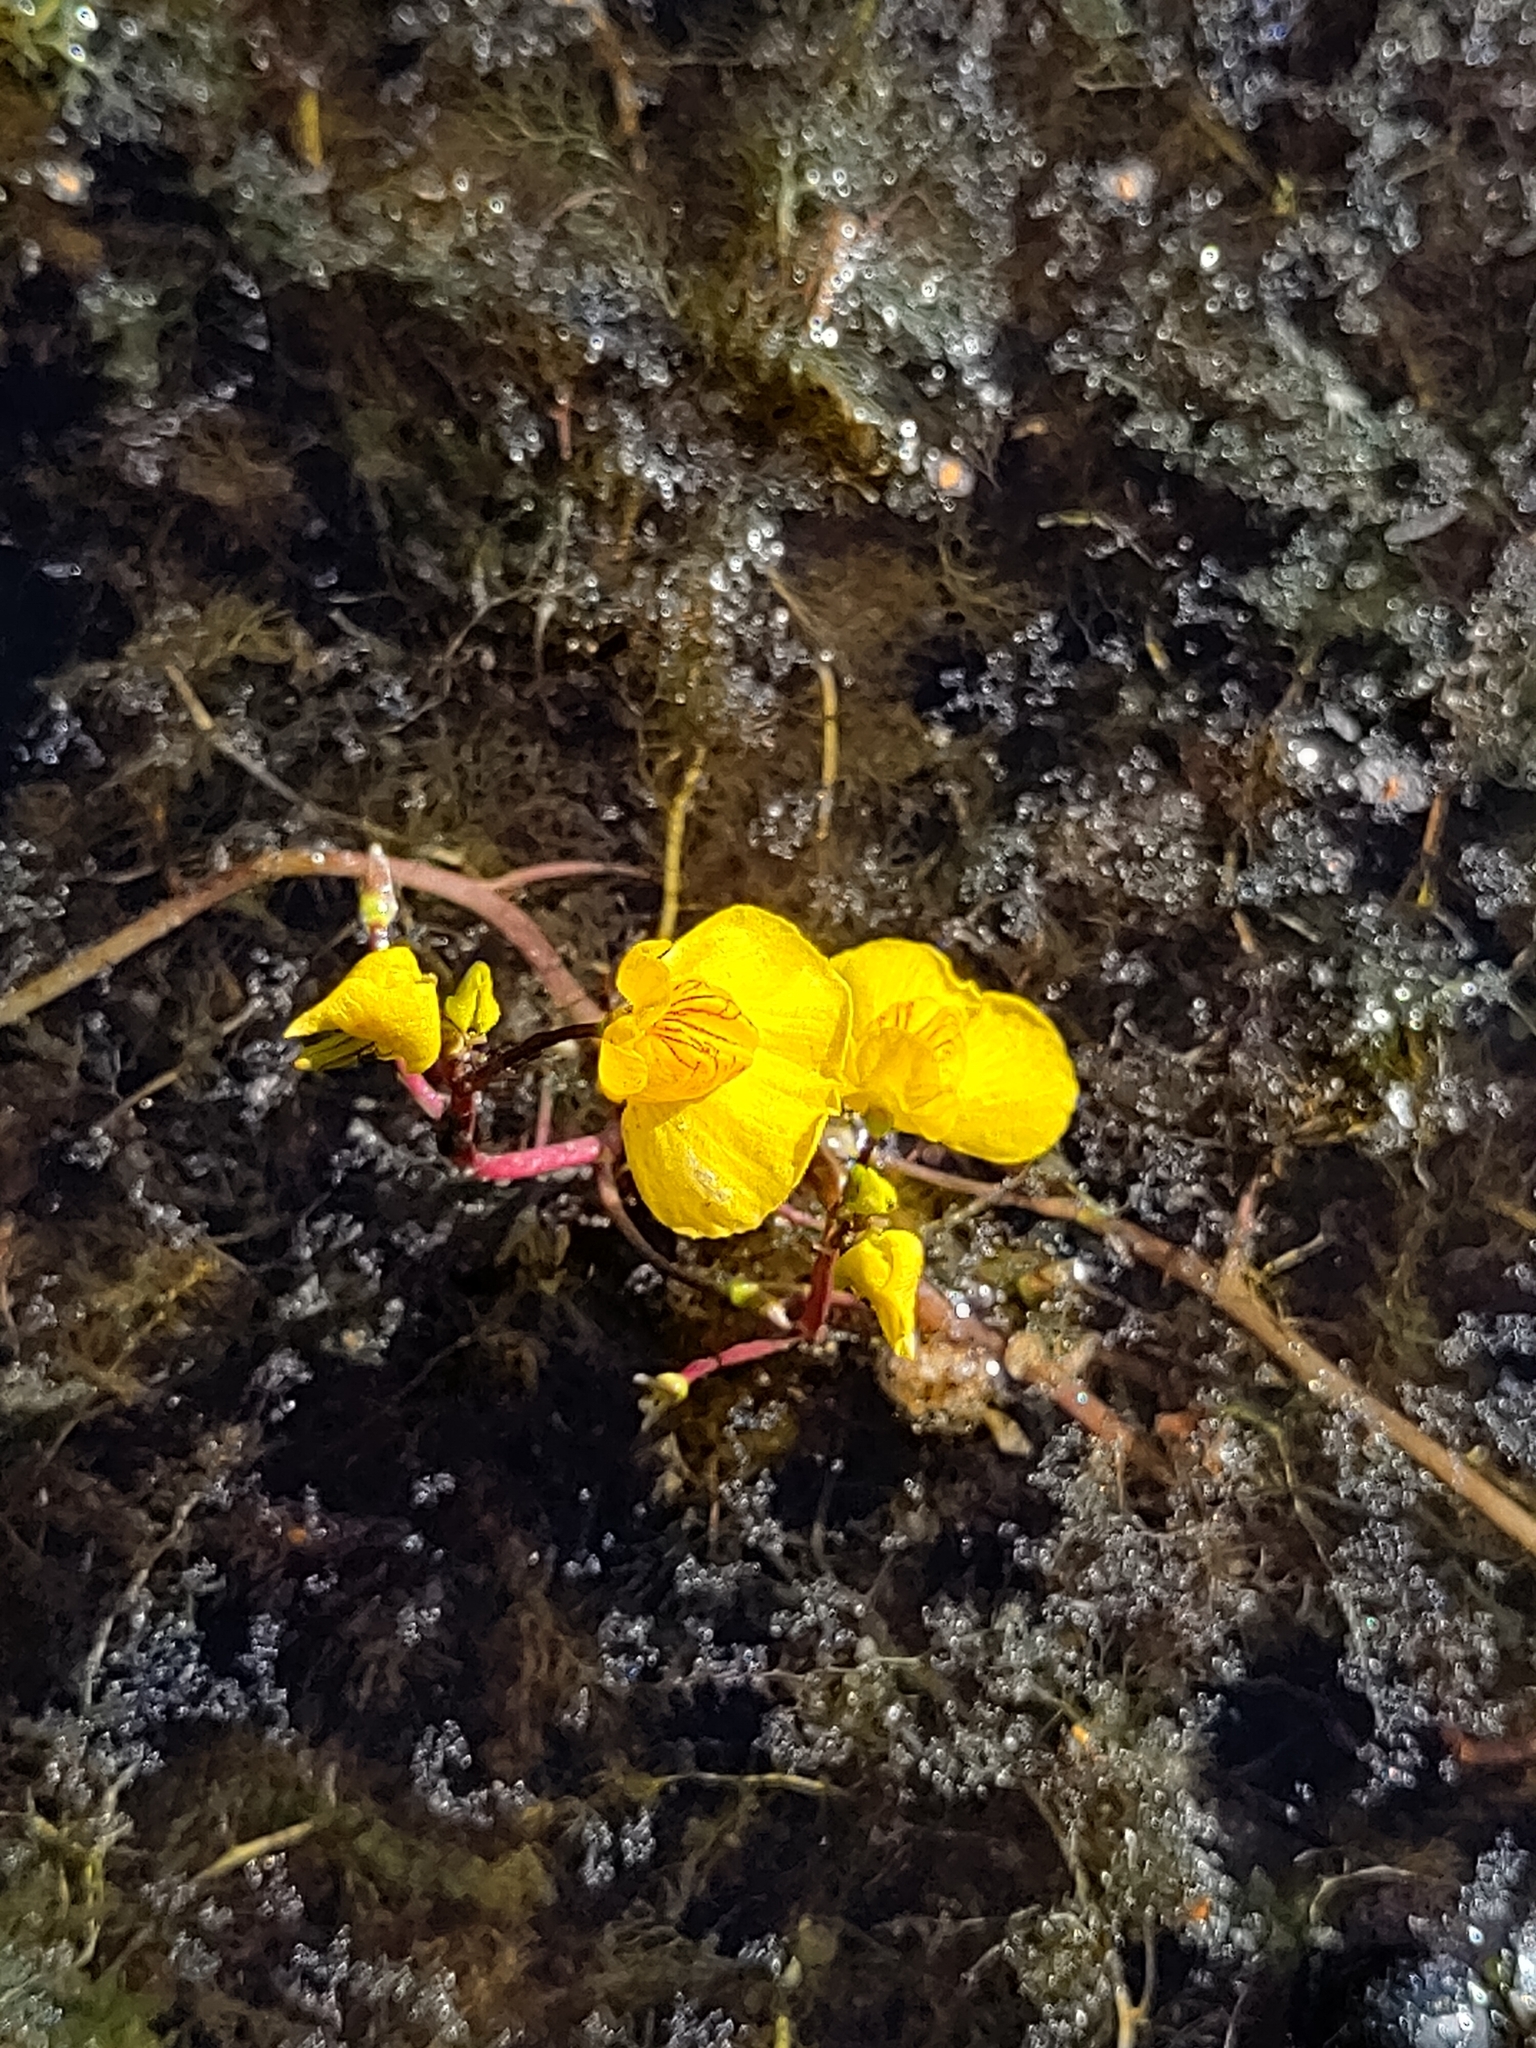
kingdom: Plantae
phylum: Tracheophyta
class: Magnoliopsida
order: Lamiales
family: Lentibulariaceae
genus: Utricularia
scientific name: Utricularia australis
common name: Bladderwort
